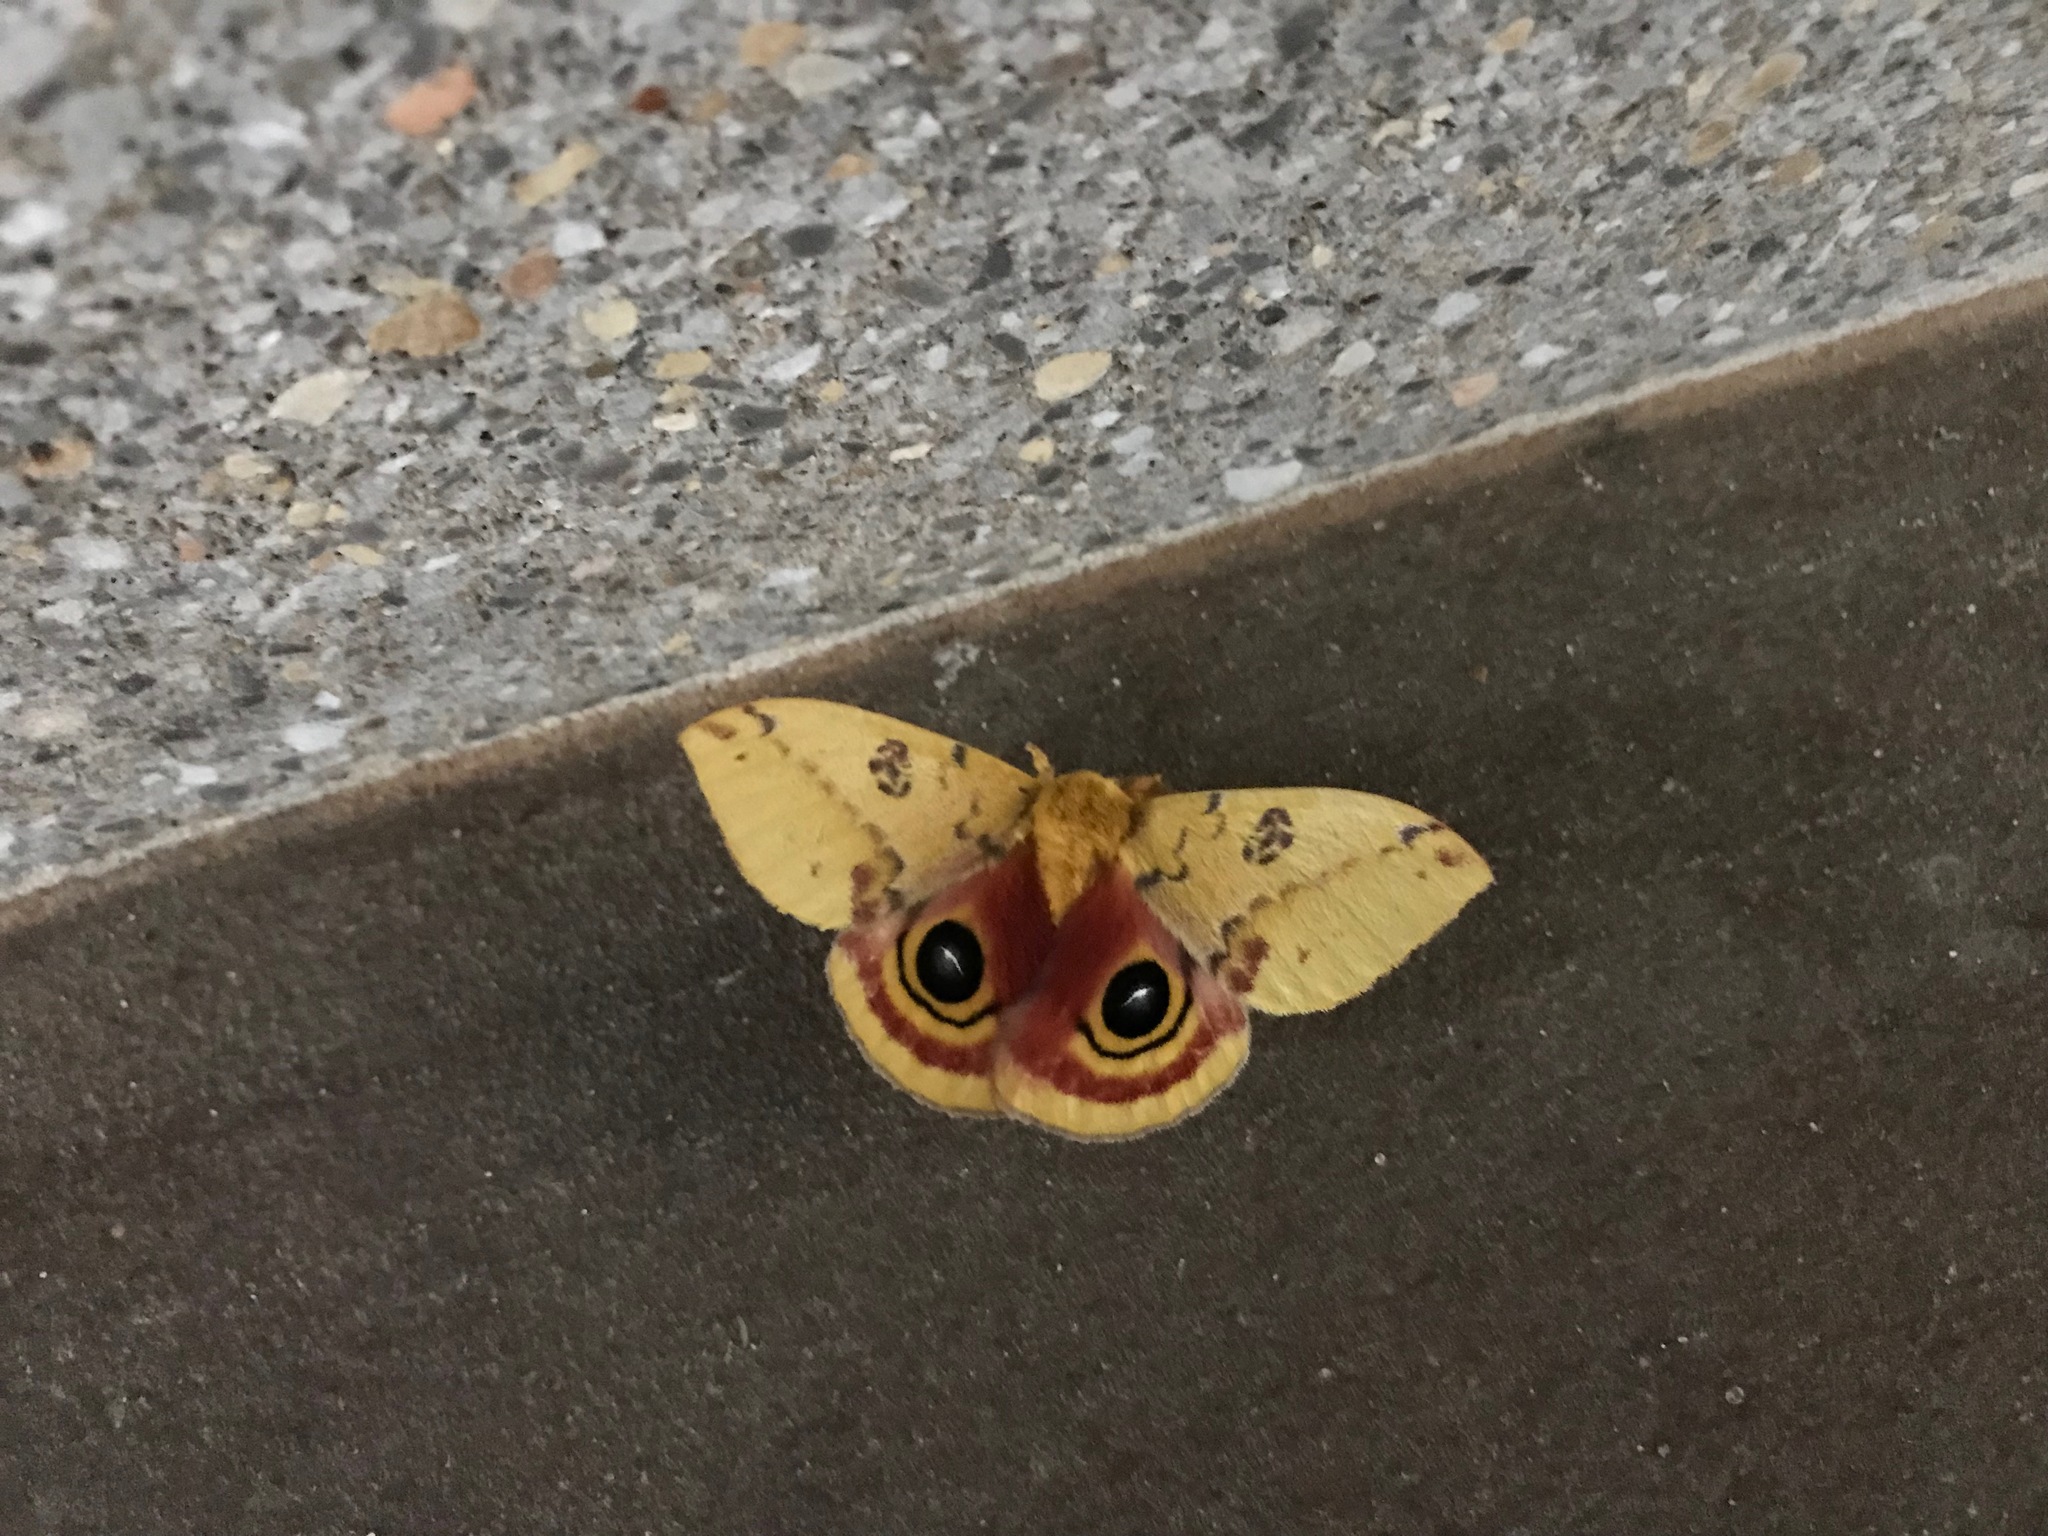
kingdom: Animalia
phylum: Arthropoda
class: Insecta
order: Lepidoptera
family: Saturniidae
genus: Automeris
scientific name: Automeris io
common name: Io moth
